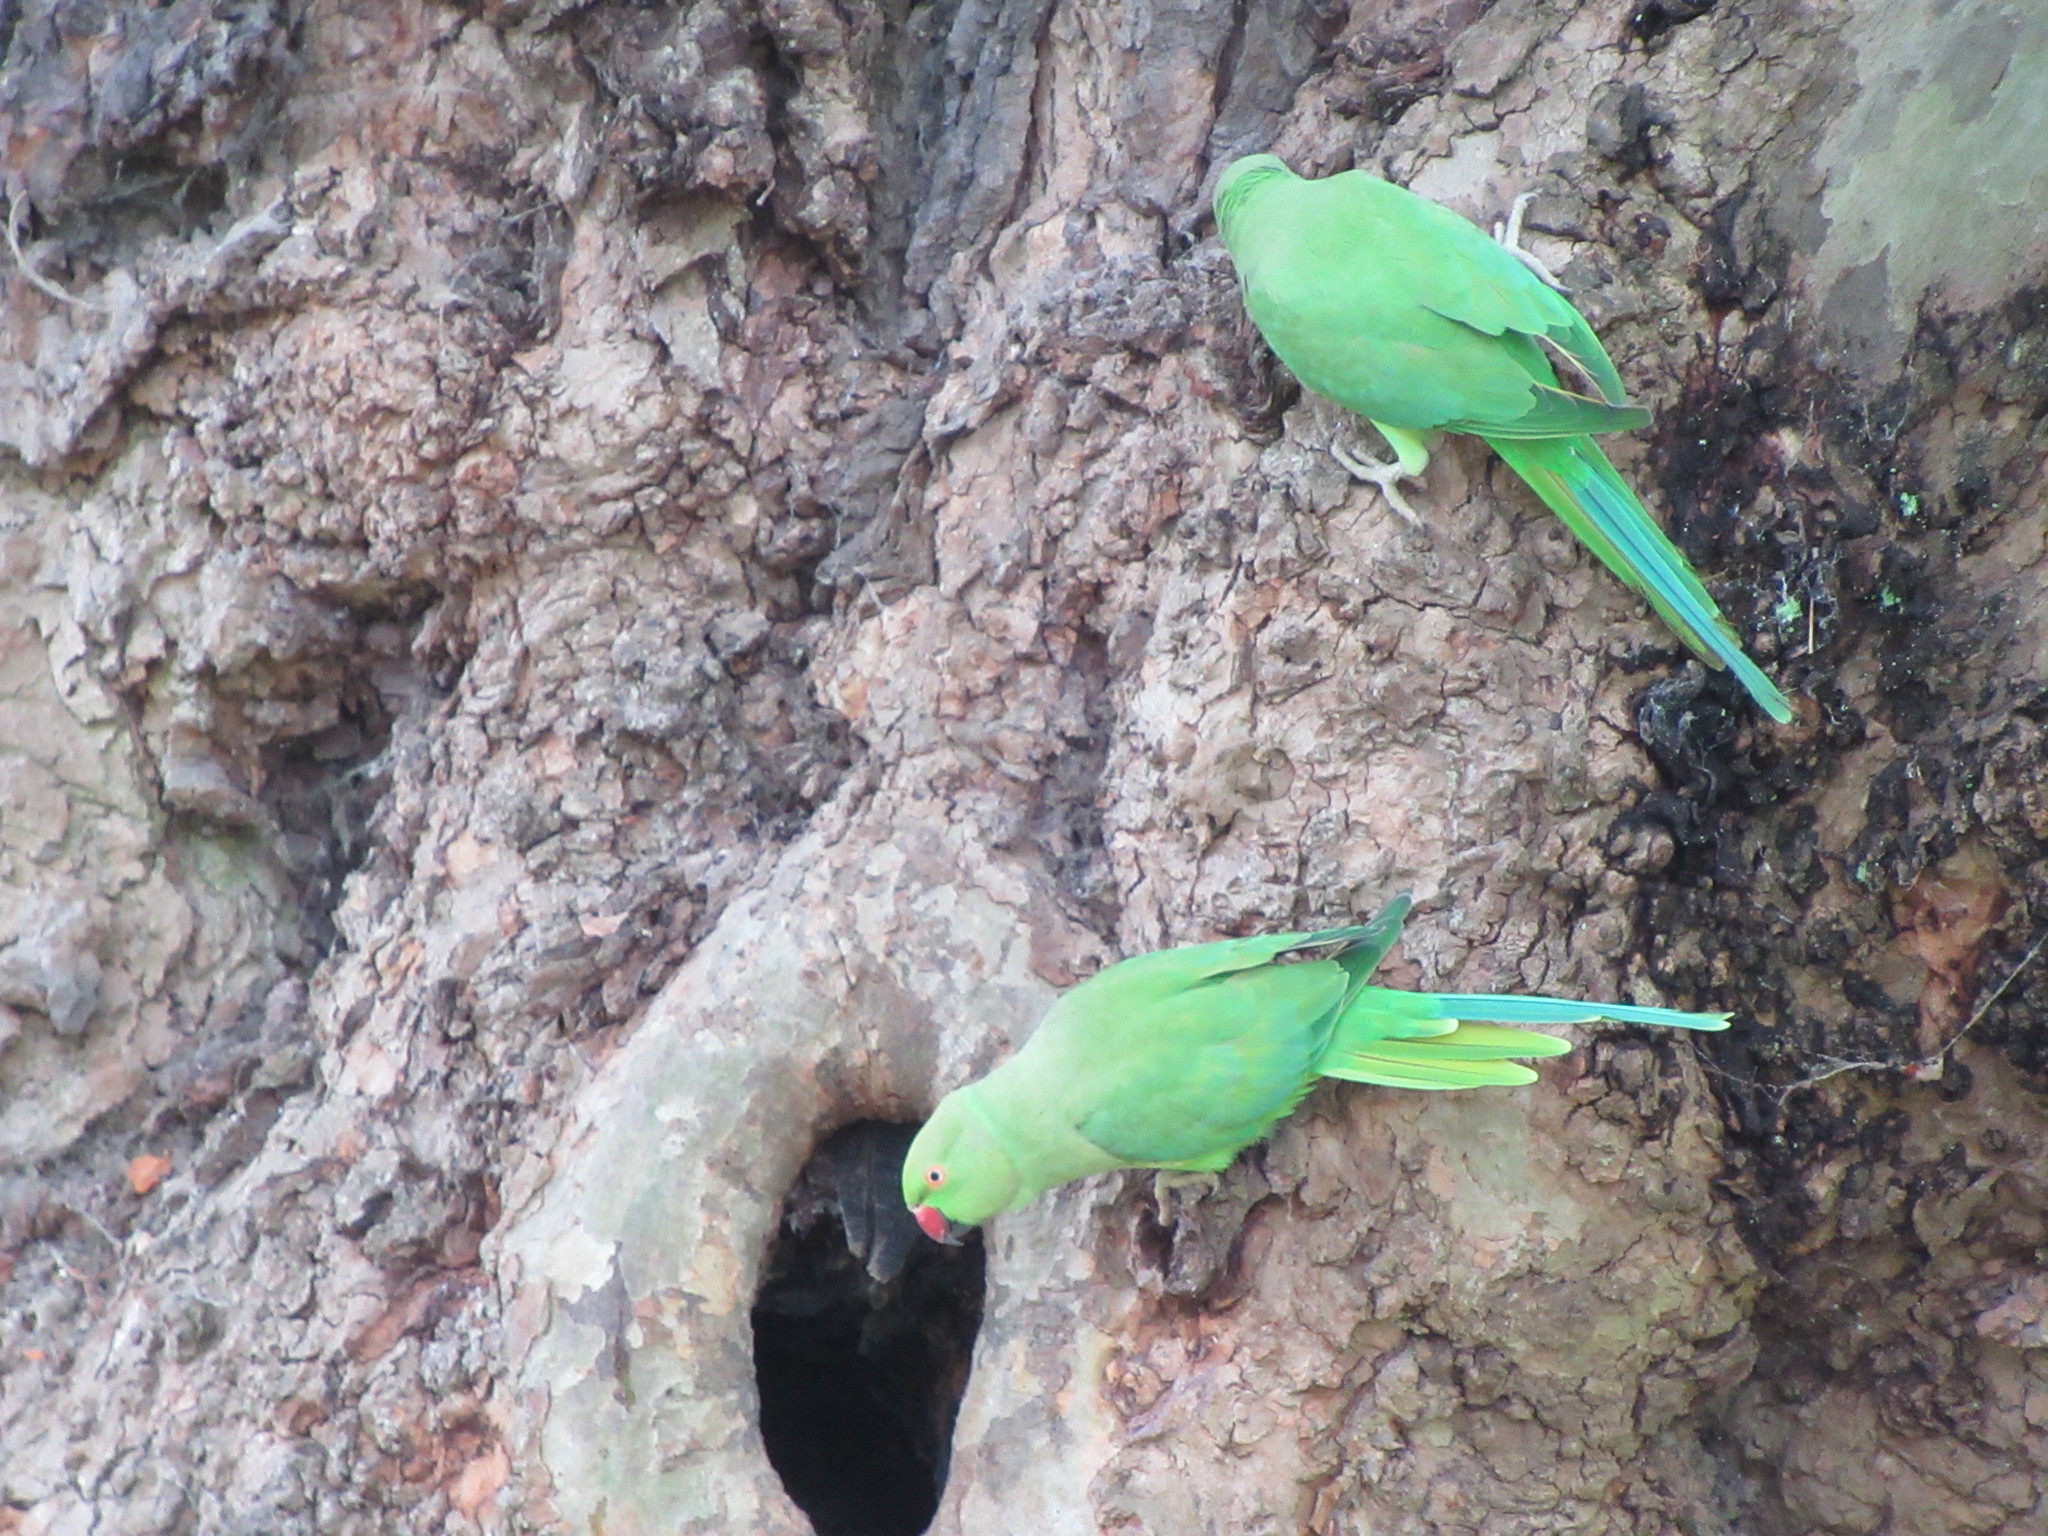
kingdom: Animalia
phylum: Chordata
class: Aves
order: Psittaciformes
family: Psittacidae
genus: Psittacula
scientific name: Psittacula krameri
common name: Rose-ringed parakeet
